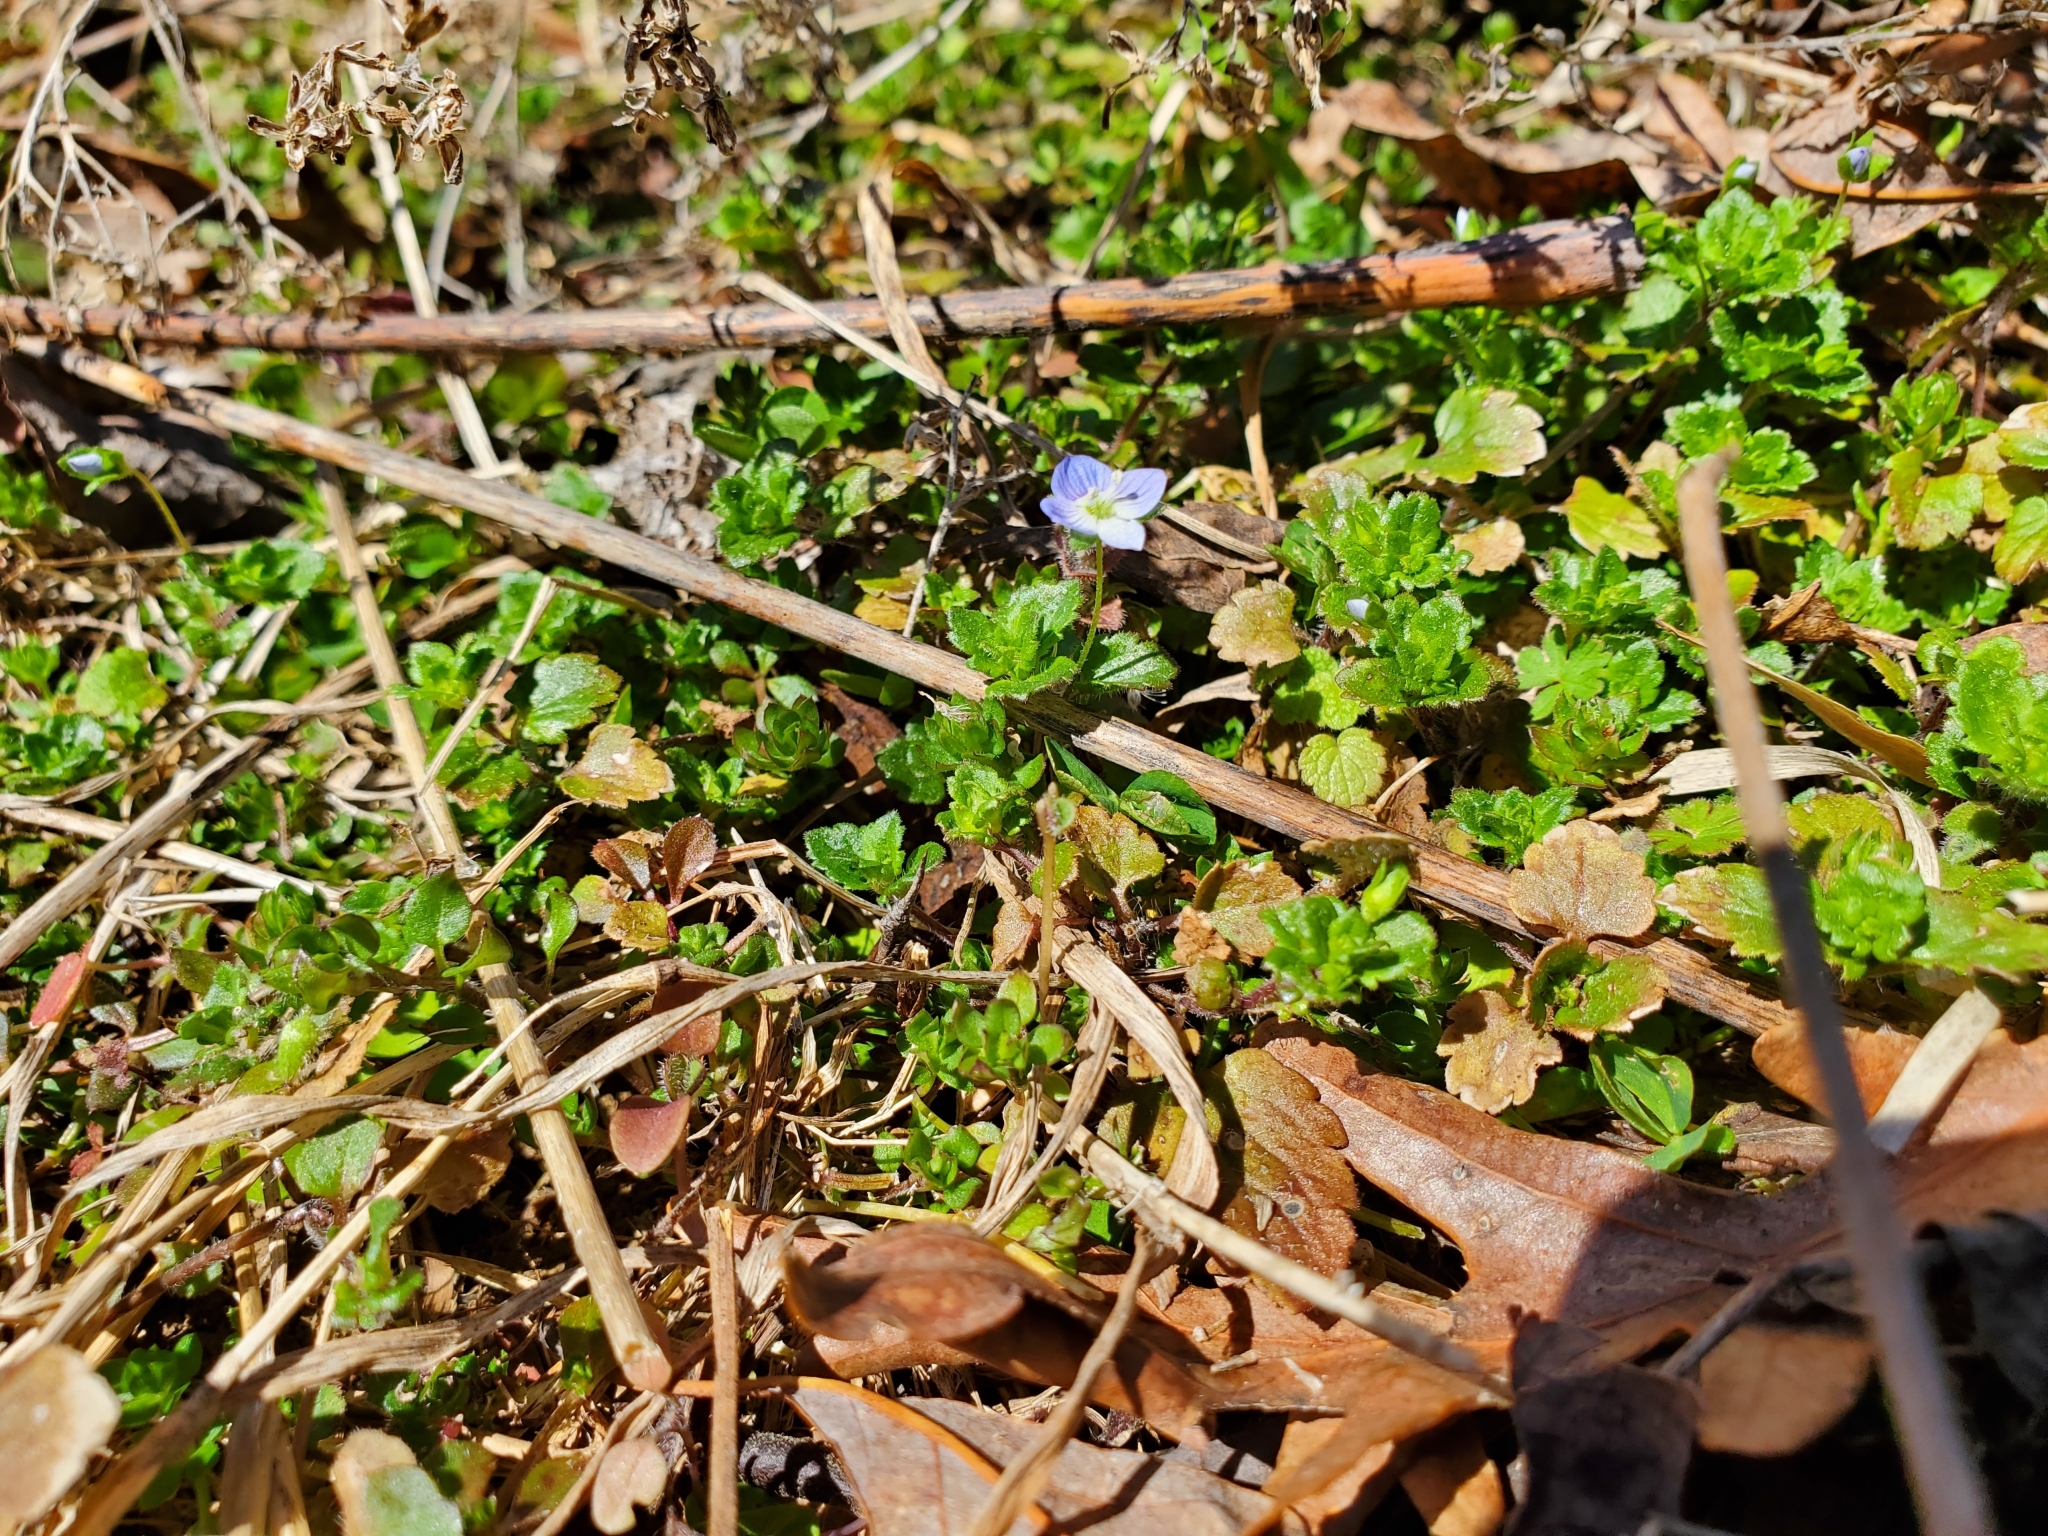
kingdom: Plantae
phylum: Tracheophyta
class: Magnoliopsida
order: Lamiales
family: Plantaginaceae
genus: Veronica
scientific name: Veronica persica
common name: Common field-speedwell
